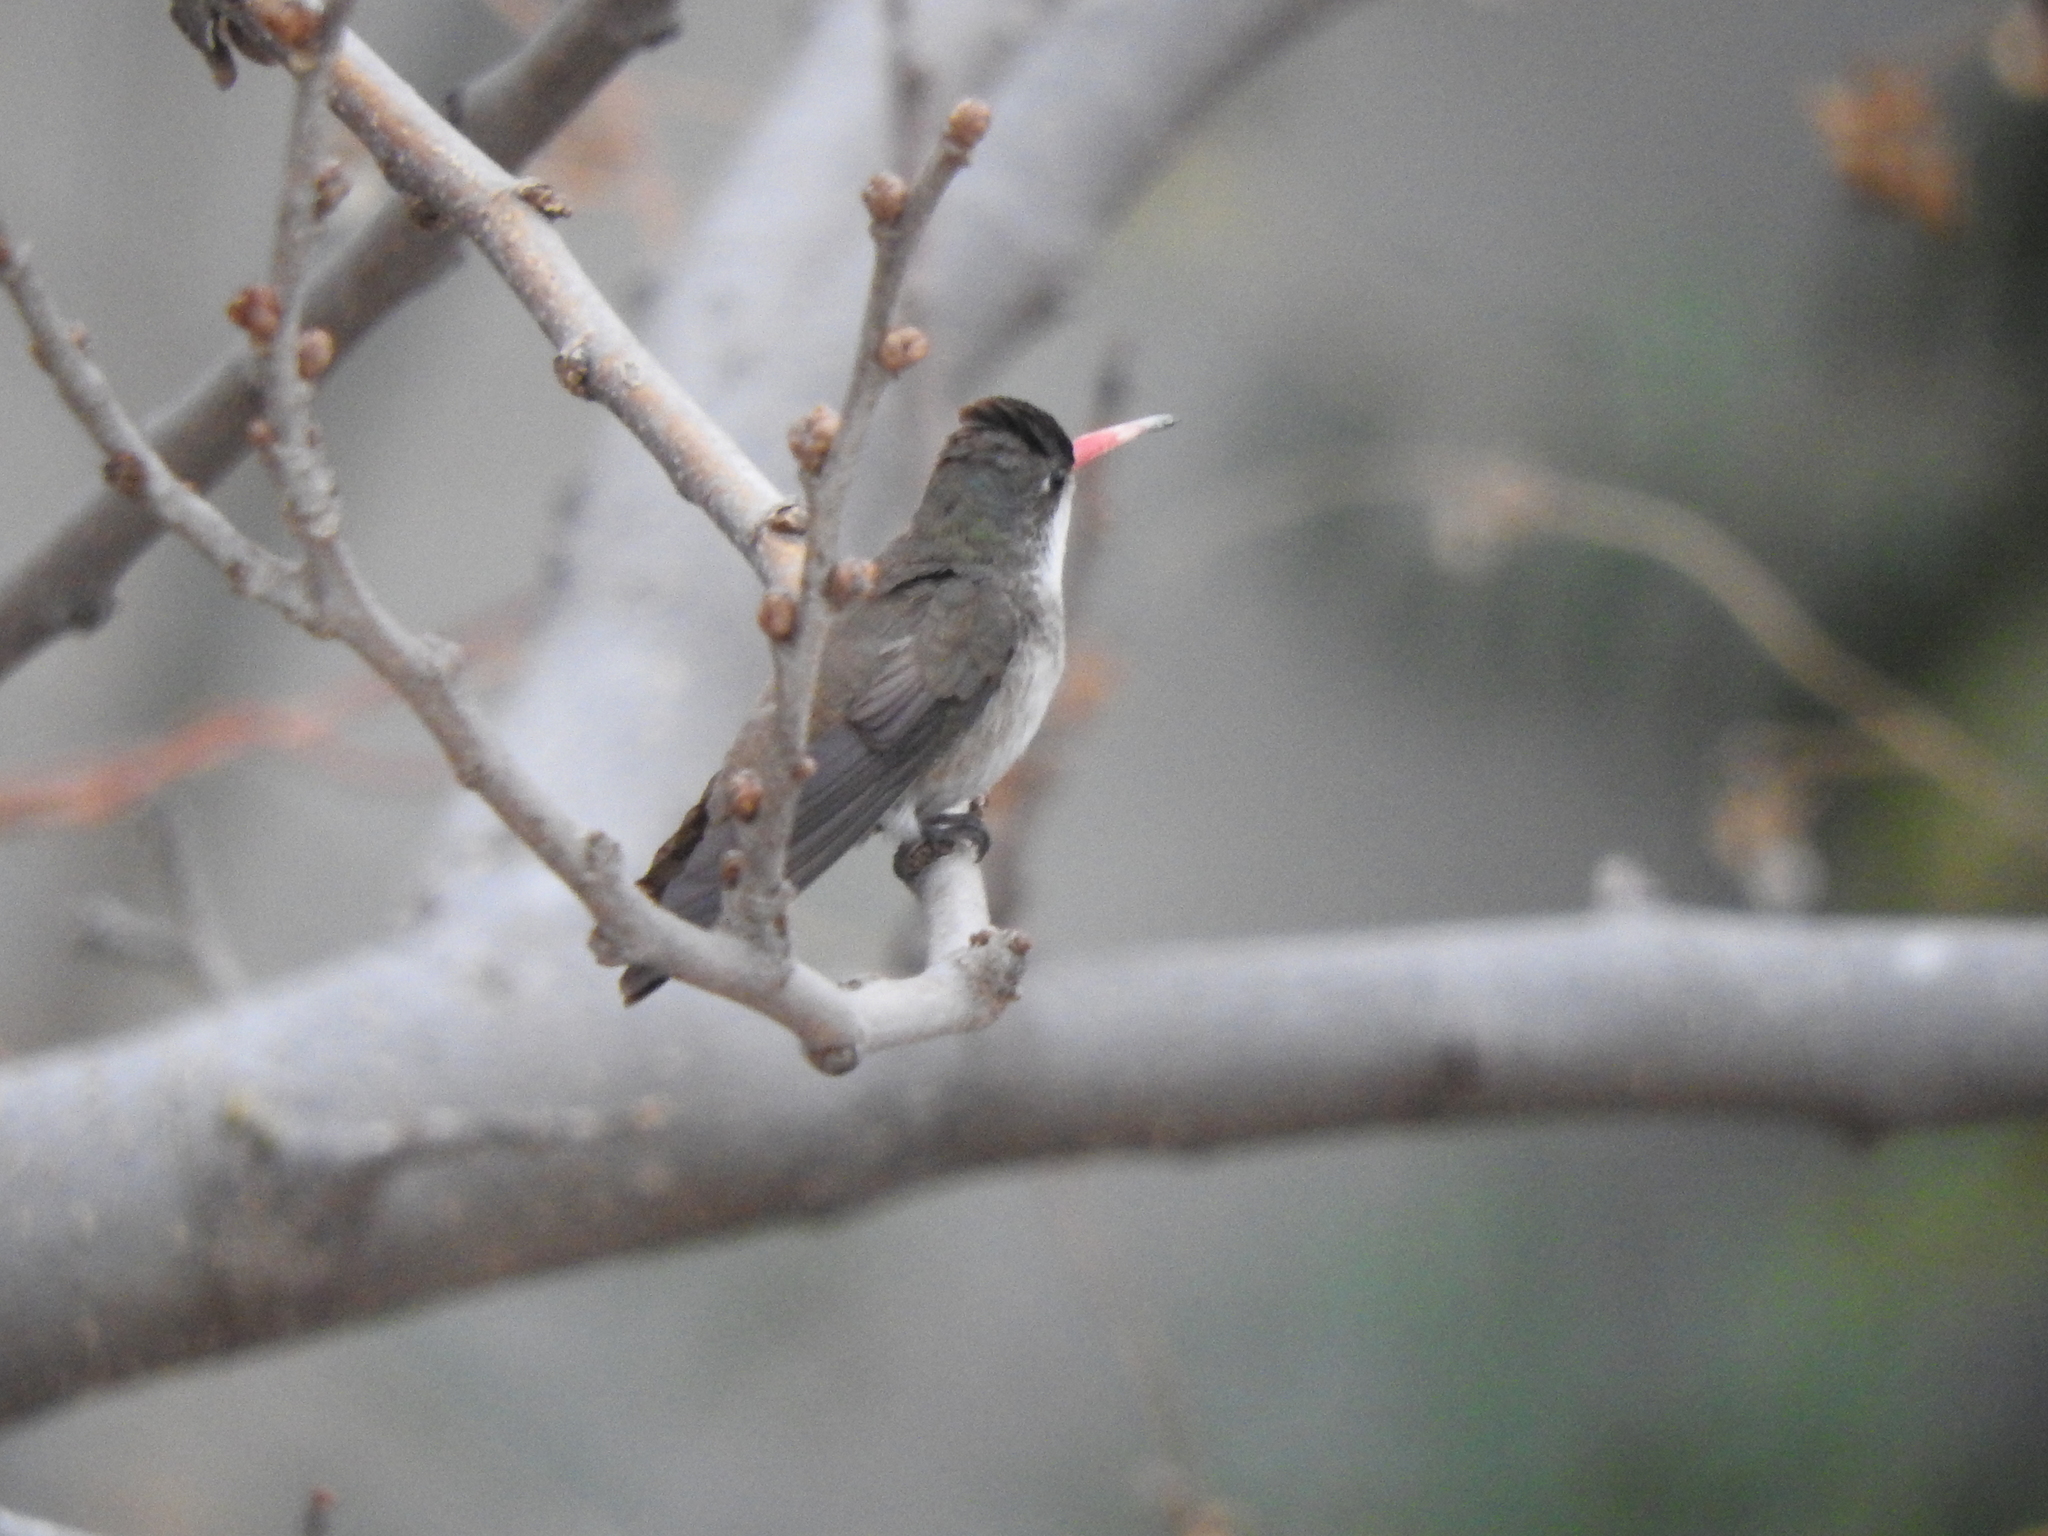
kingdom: Animalia
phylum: Chordata
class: Aves
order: Apodiformes
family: Trochilidae
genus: Leucolia
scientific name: Leucolia violiceps
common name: Violet-crowned hummingbird
